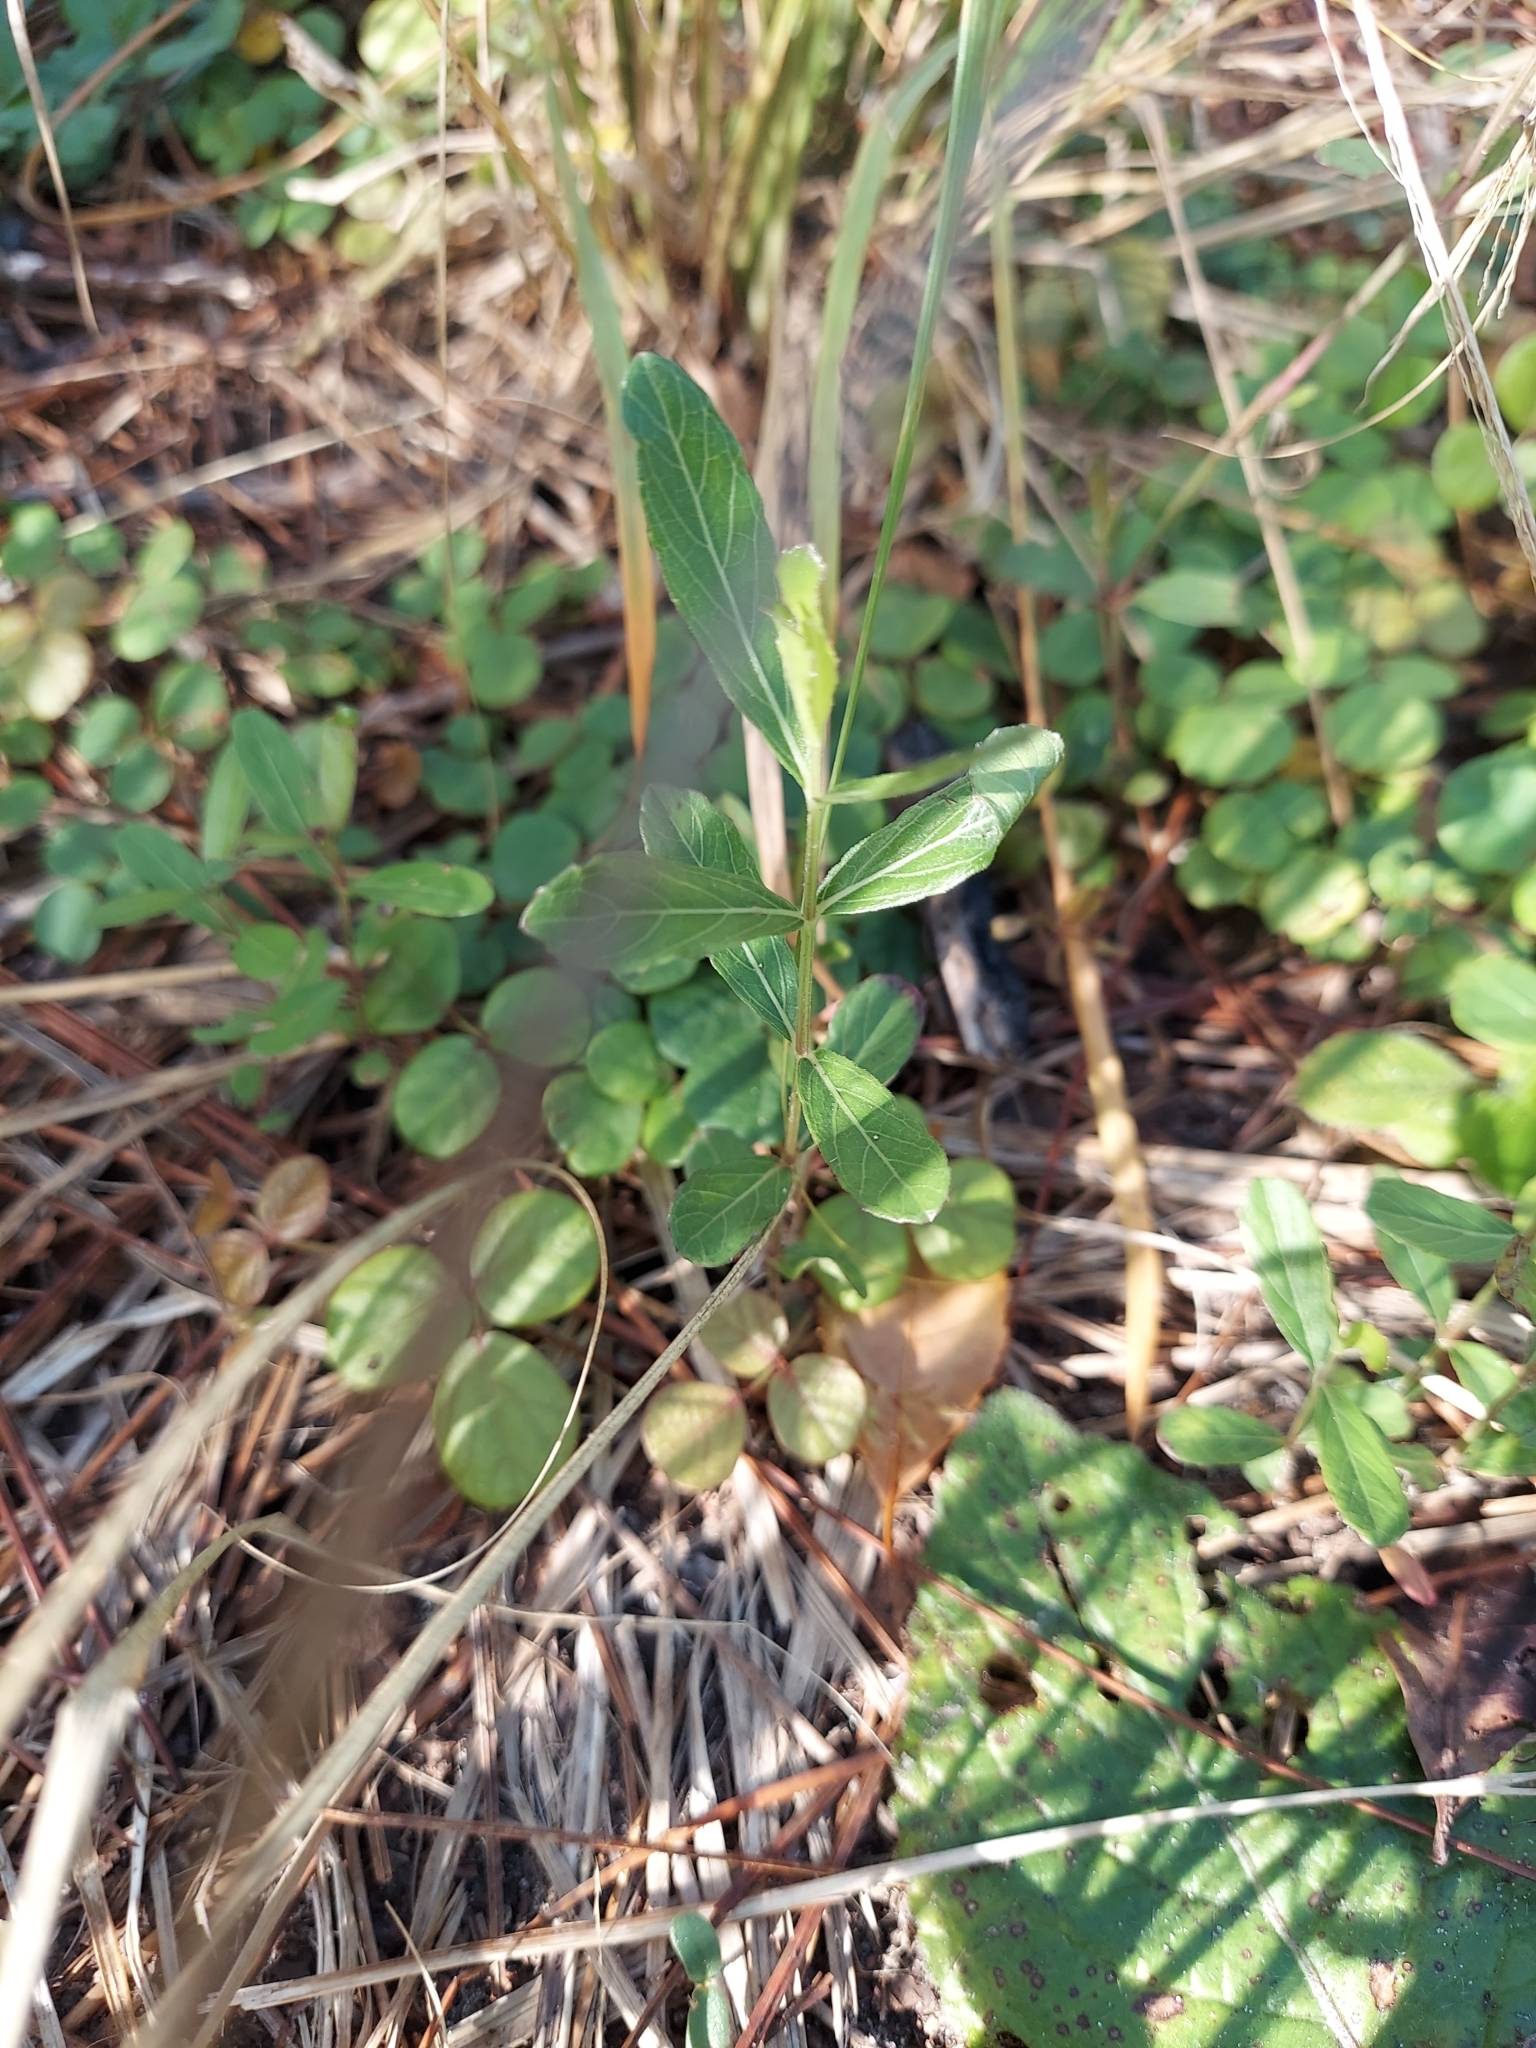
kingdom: Plantae
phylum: Tracheophyta
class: Magnoliopsida
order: Lamiales
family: Acanthaceae
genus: Dyschoriste
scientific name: Dyschoriste oblongifolia
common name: Blue twinflower
